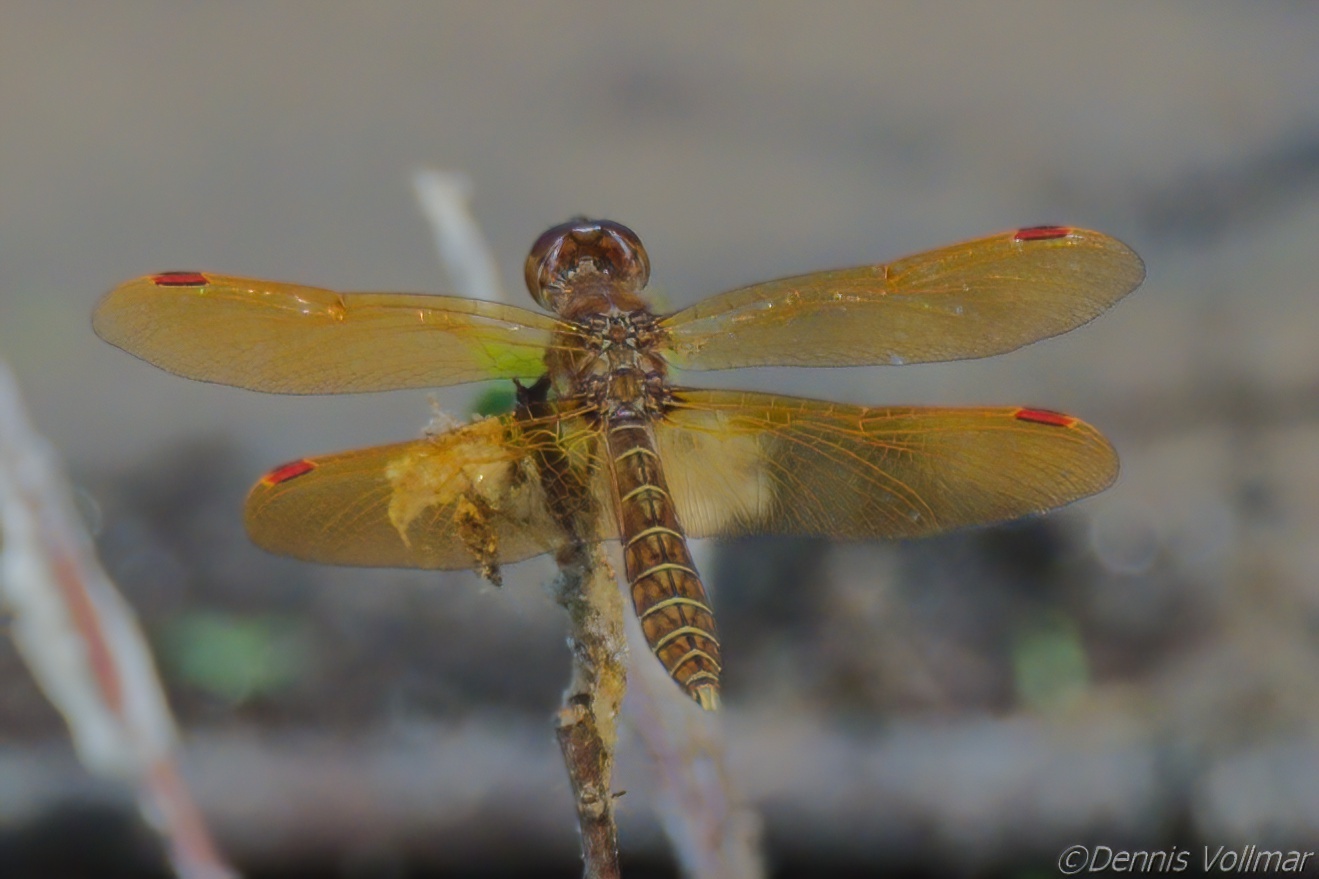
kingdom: Animalia
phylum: Arthropoda
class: Insecta
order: Odonata
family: Libellulidae
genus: Perithemis
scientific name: Perithemis tenera
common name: Eastern amberwing
